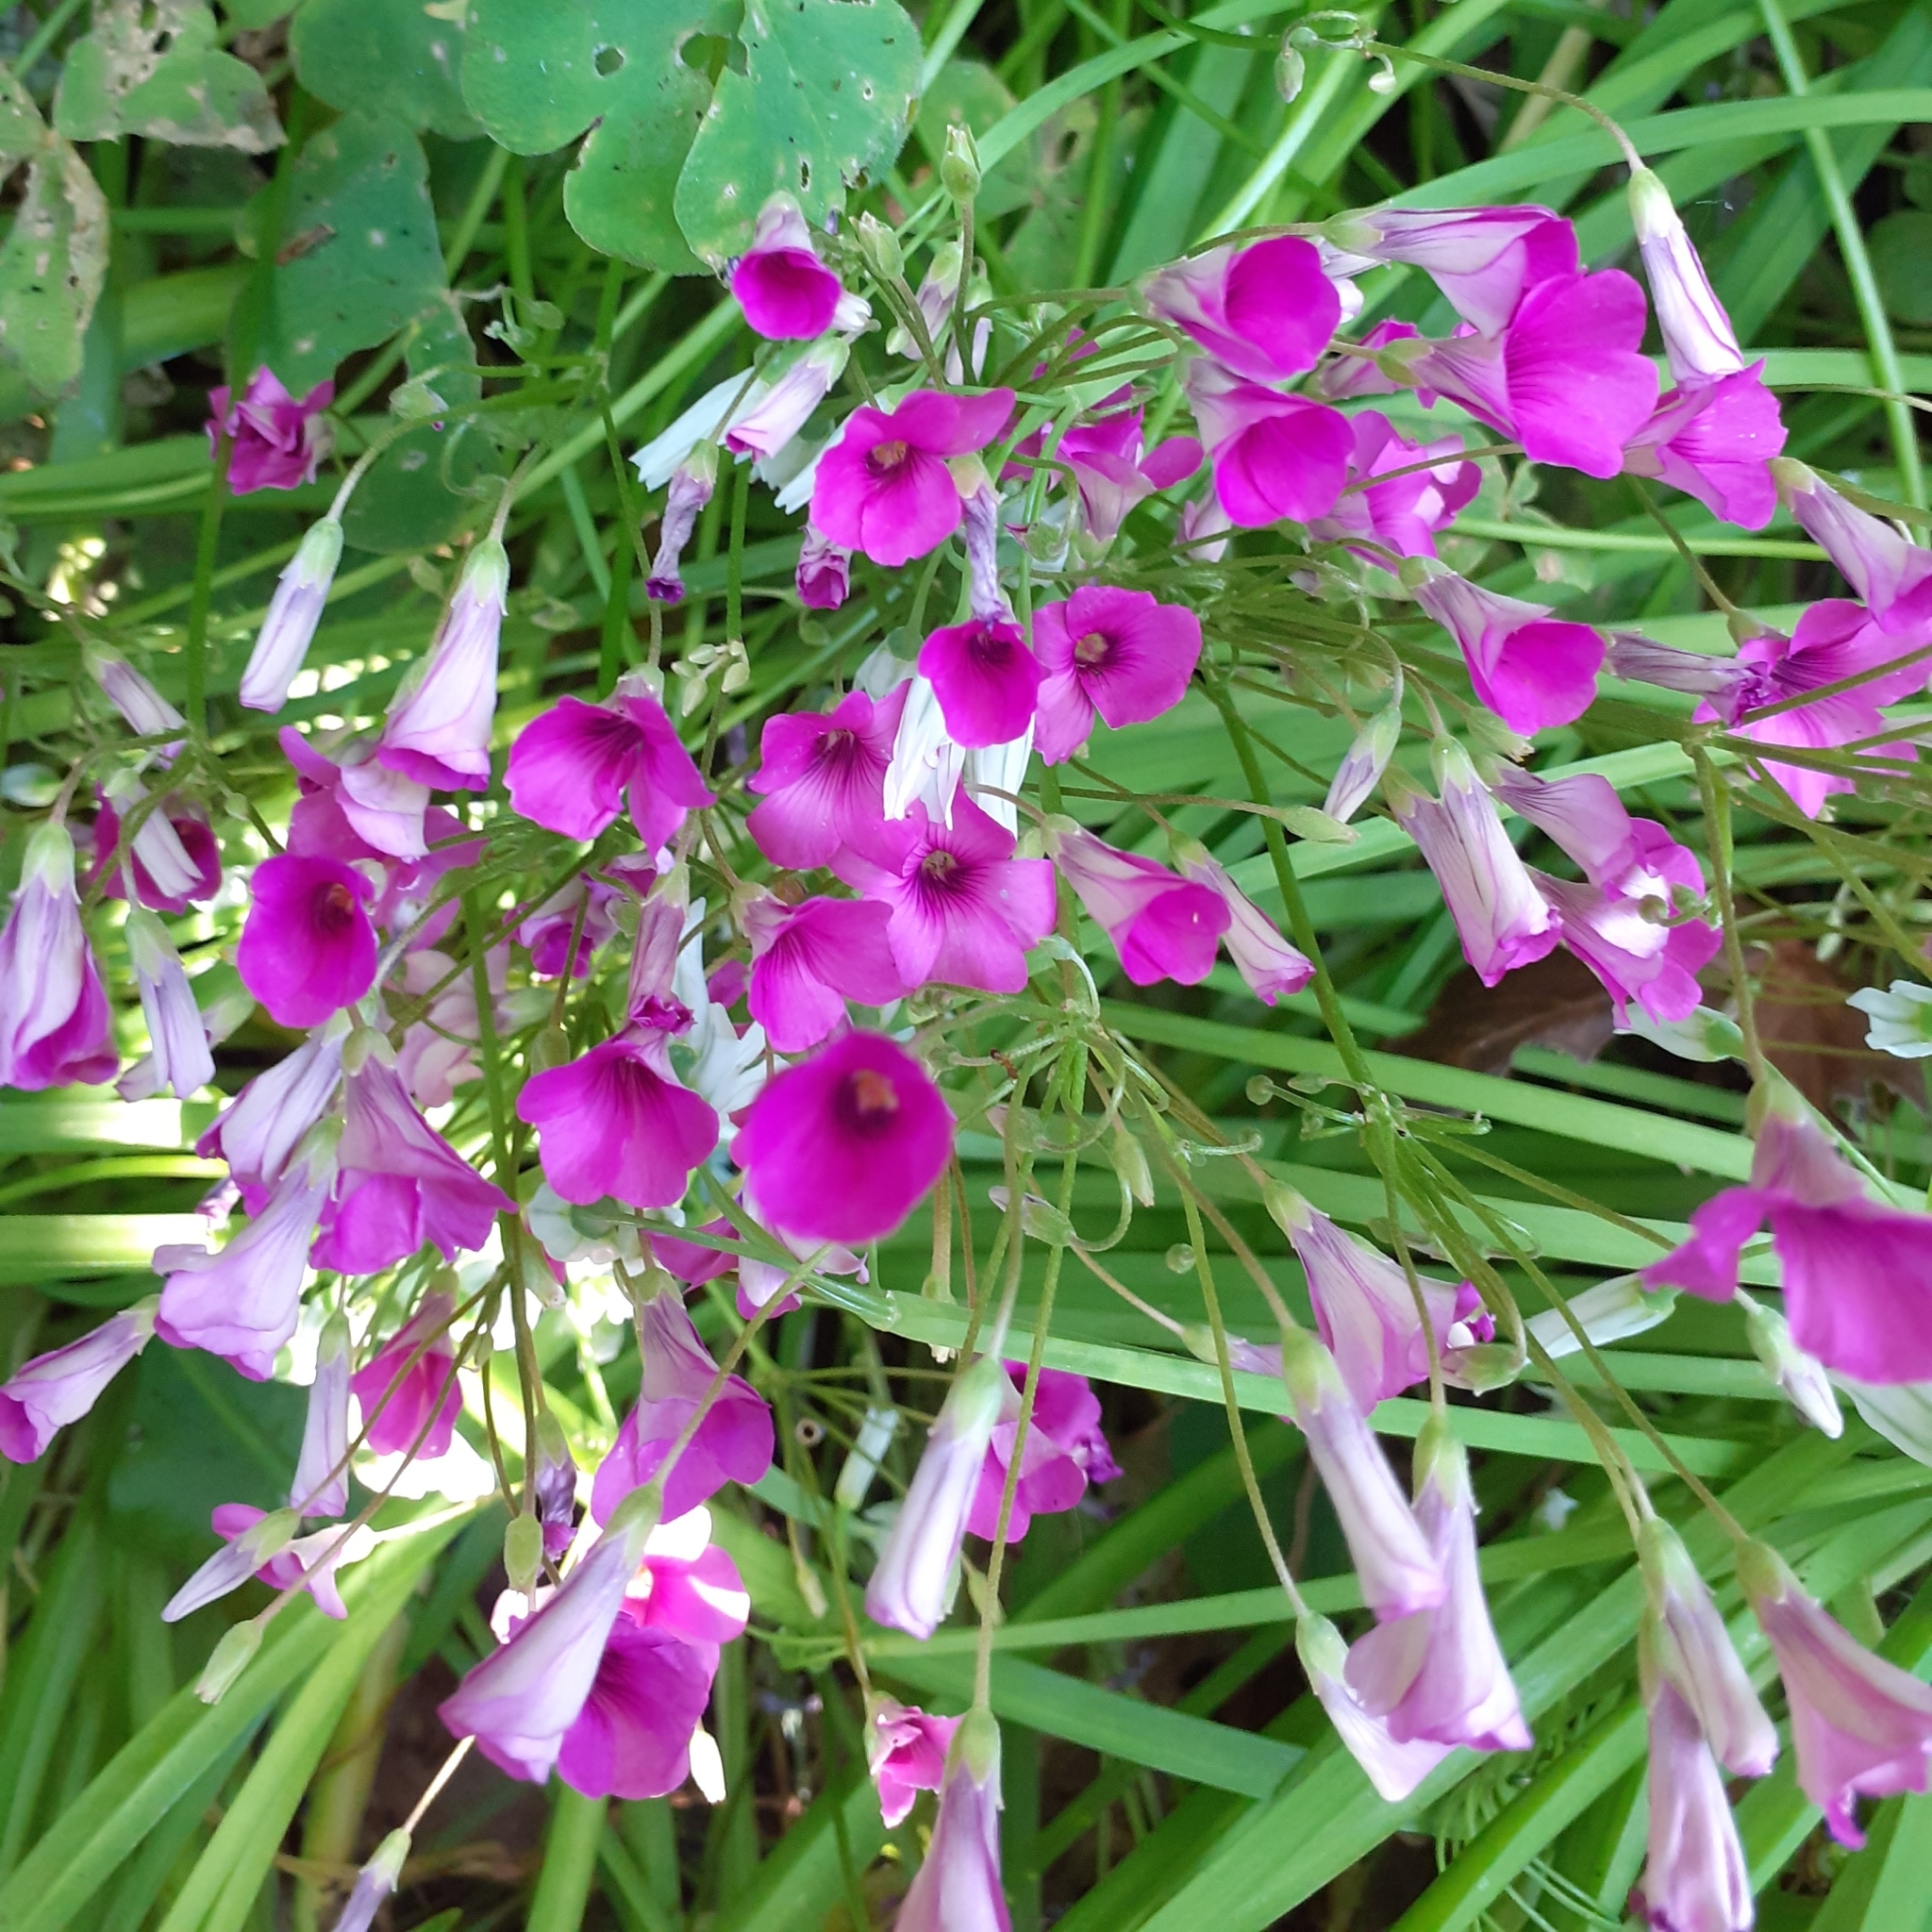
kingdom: Plantae
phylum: Tracheophyta
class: Magnoliopsida
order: Oxalidales
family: Oxalidaceae
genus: Oxalis
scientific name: Oxalis articulata
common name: Pink-sorrel
